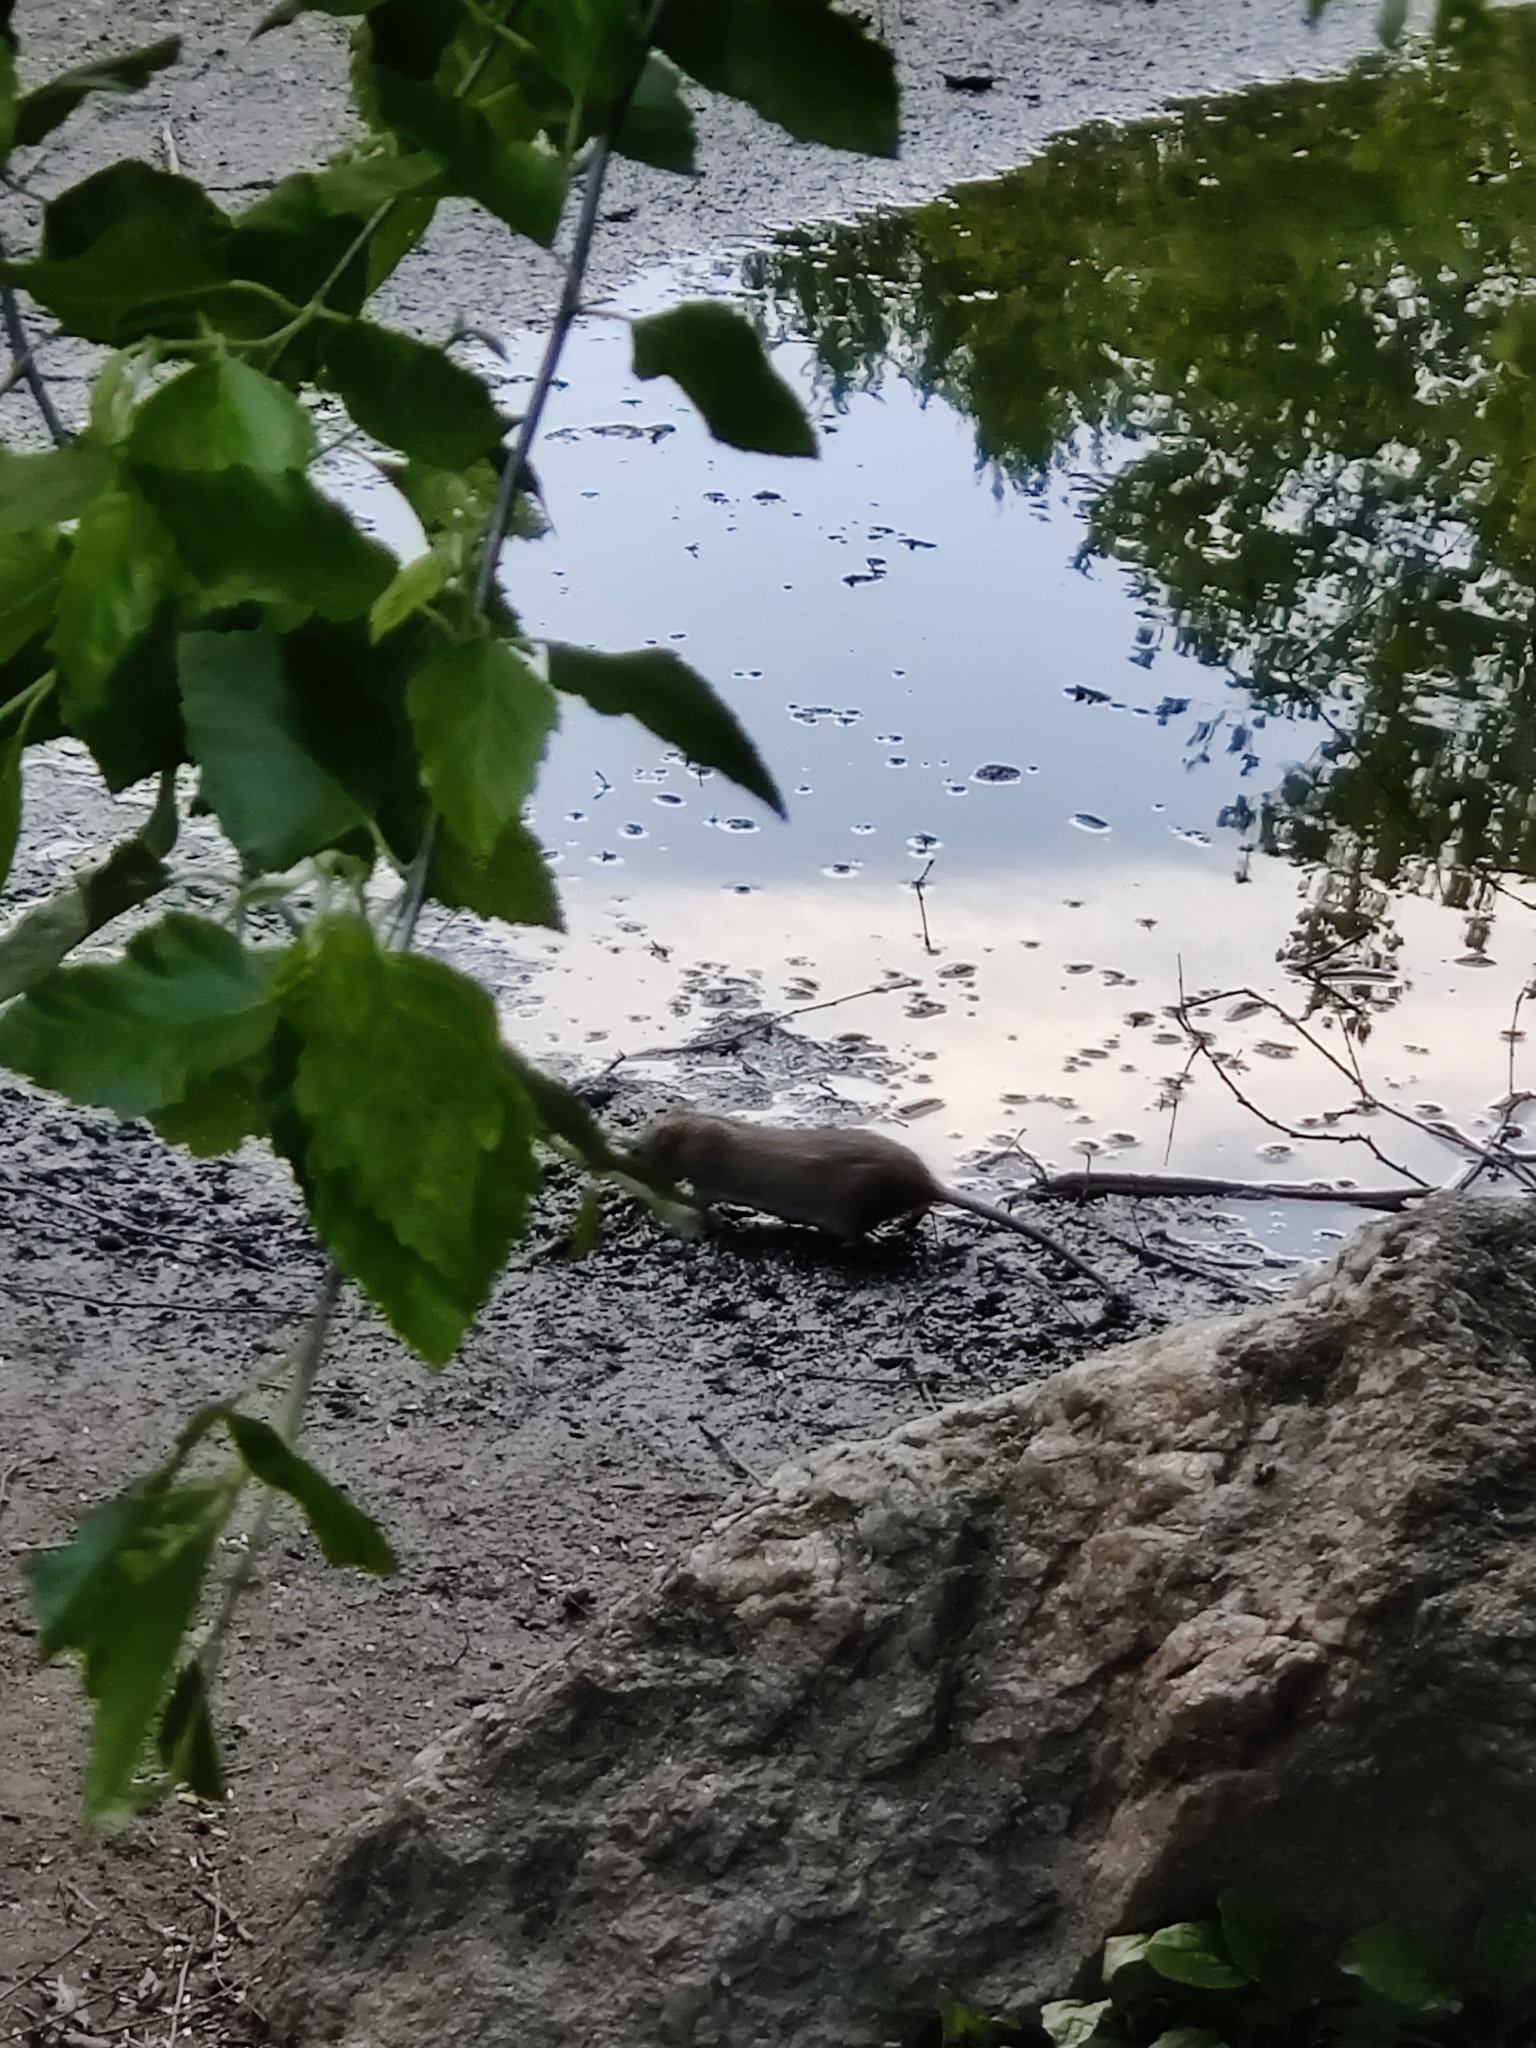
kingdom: Animalia
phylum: Chordata
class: Mammalia
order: Rodentia
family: Muridae
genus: Rattus
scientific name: Rattus norvegicus
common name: Brown rat
